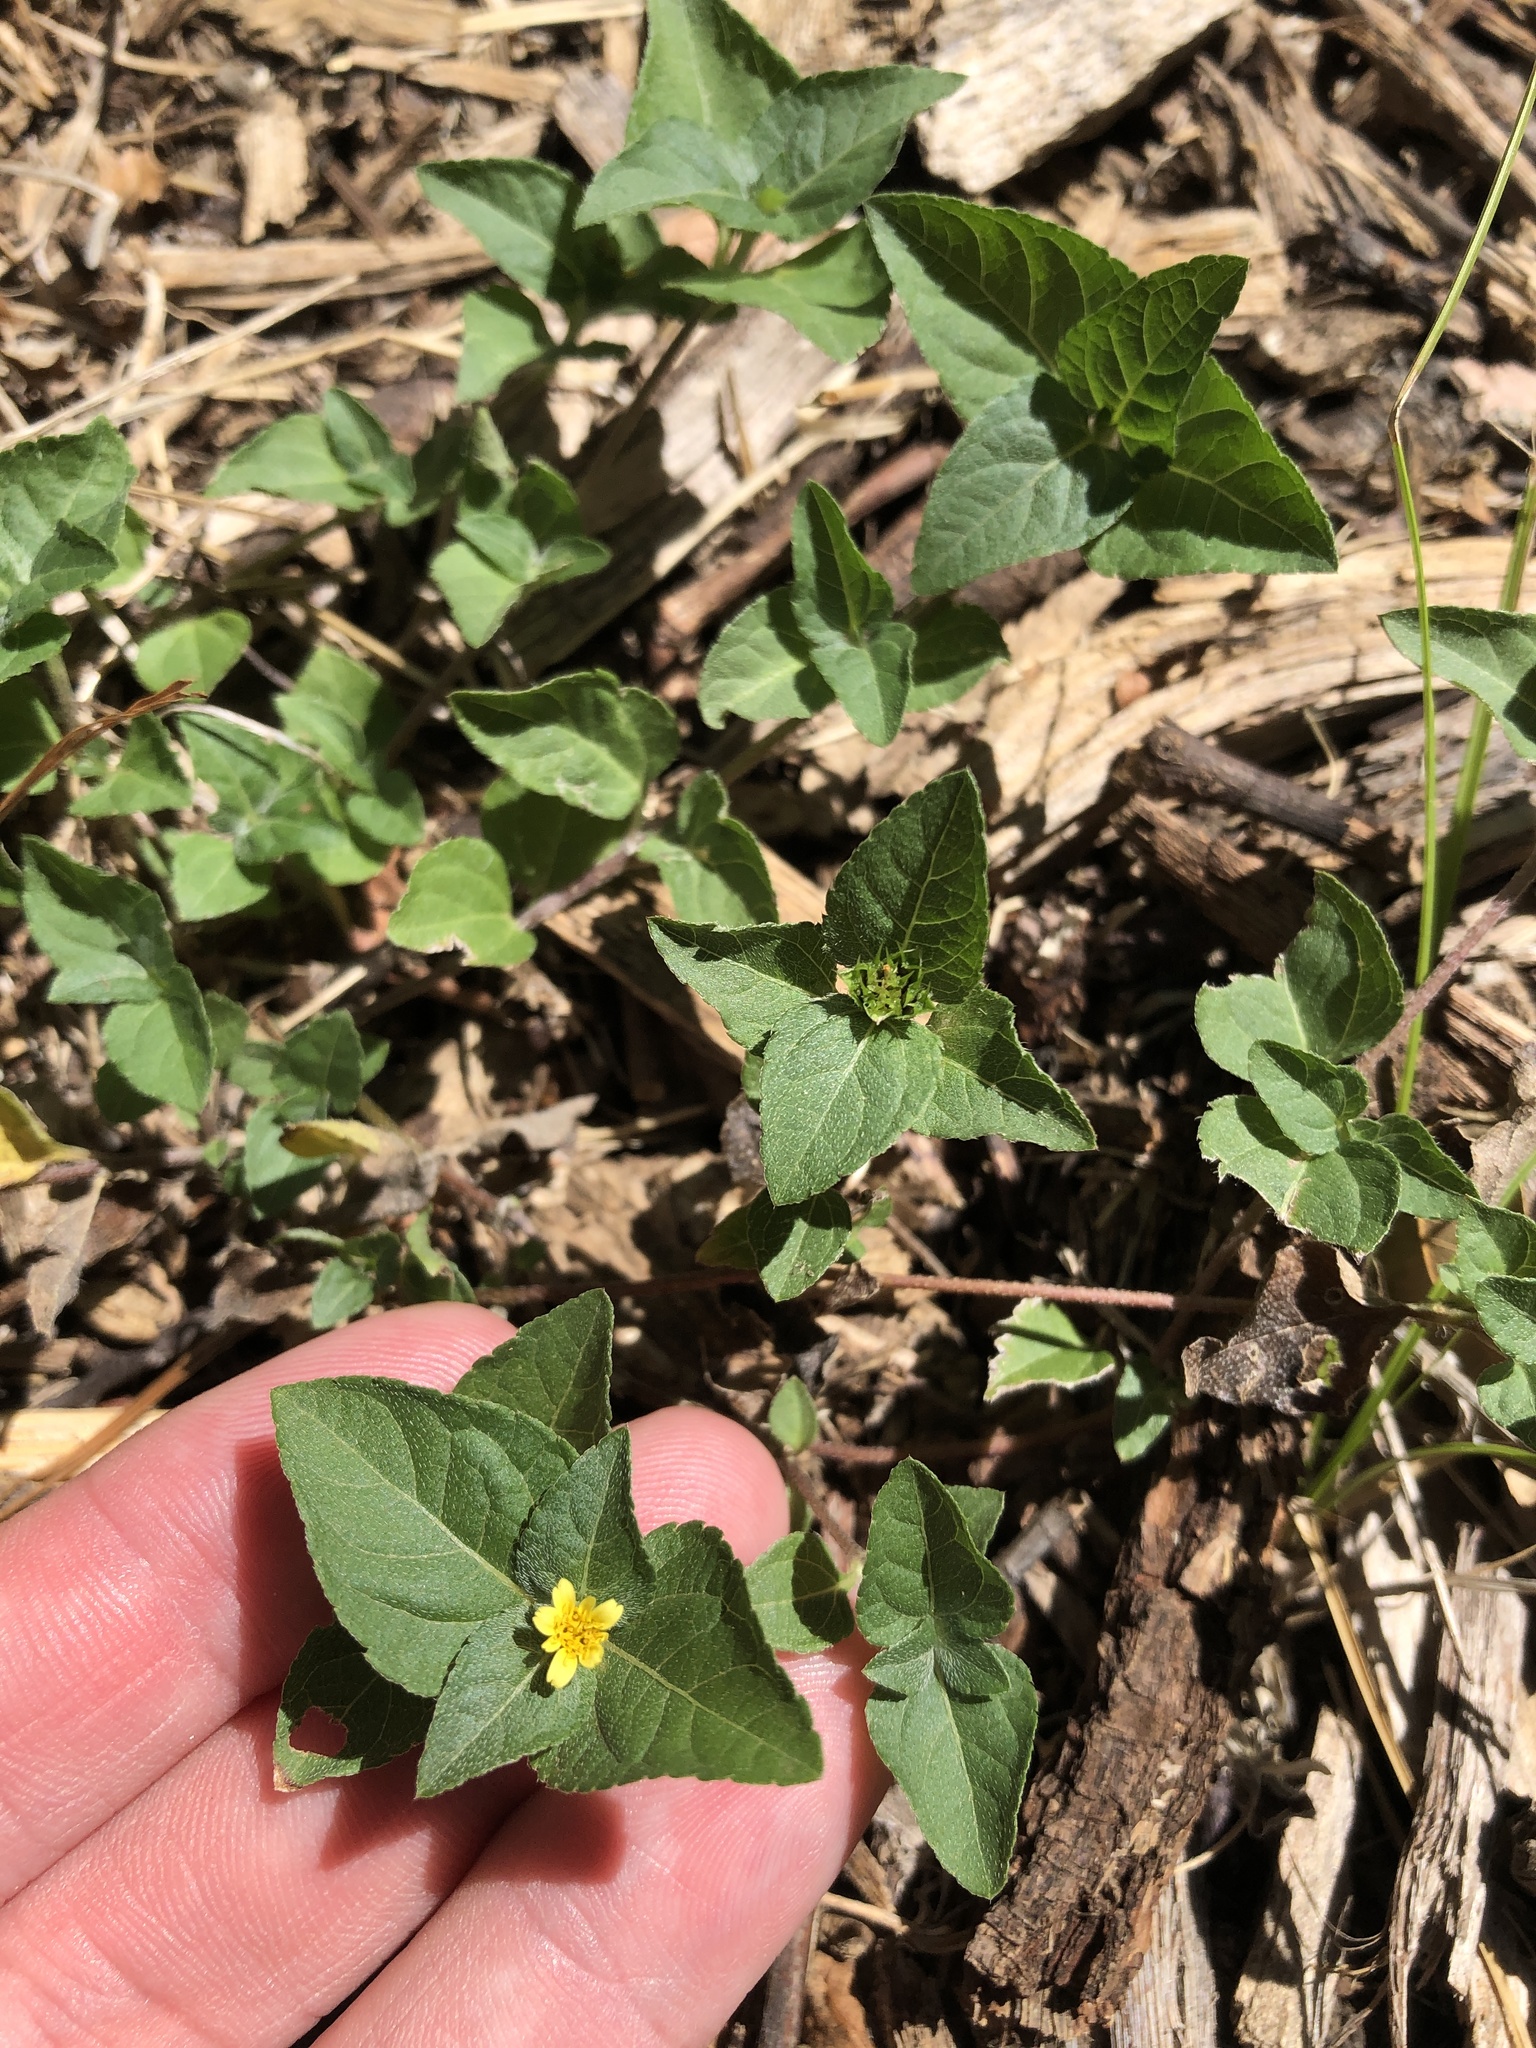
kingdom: Plantae
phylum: Tracheophyta
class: Magnoliopsida
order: Asterales
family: Asteraceae
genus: Calyptocarpus
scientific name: Calyptocarpus vialis
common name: Straggler daisy
